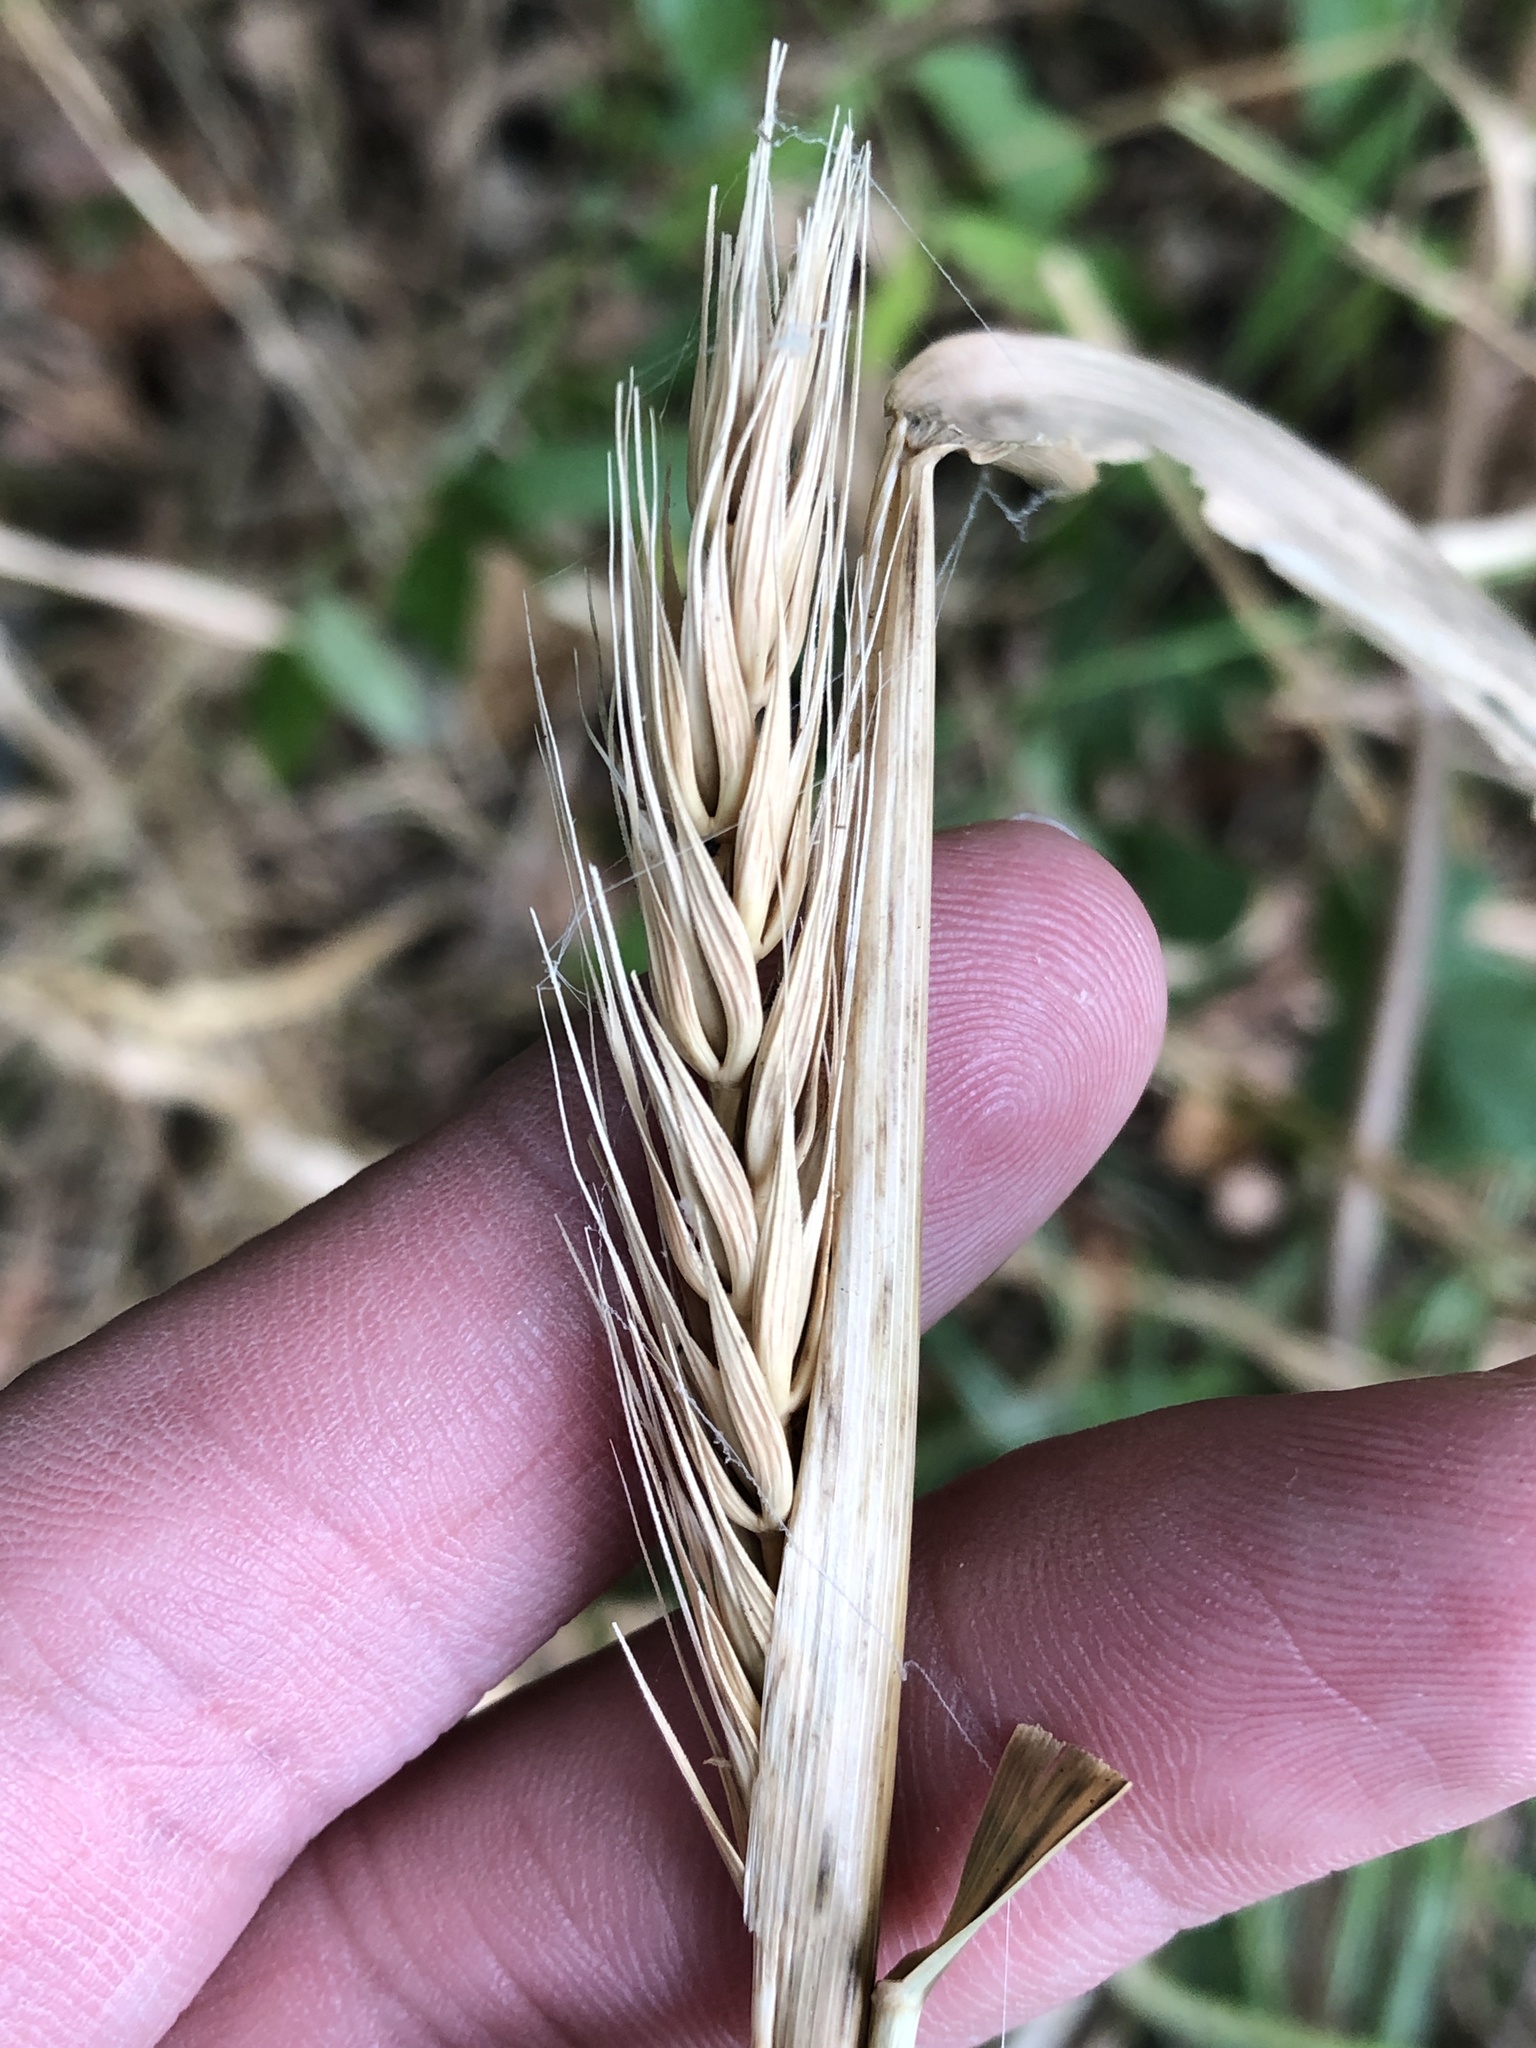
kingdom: Plantae
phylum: Tracheophyta
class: Liliopsida
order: Poales
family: Poaceae
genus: Elymus
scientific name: Elymus virginicus
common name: Common eastern wildrye
